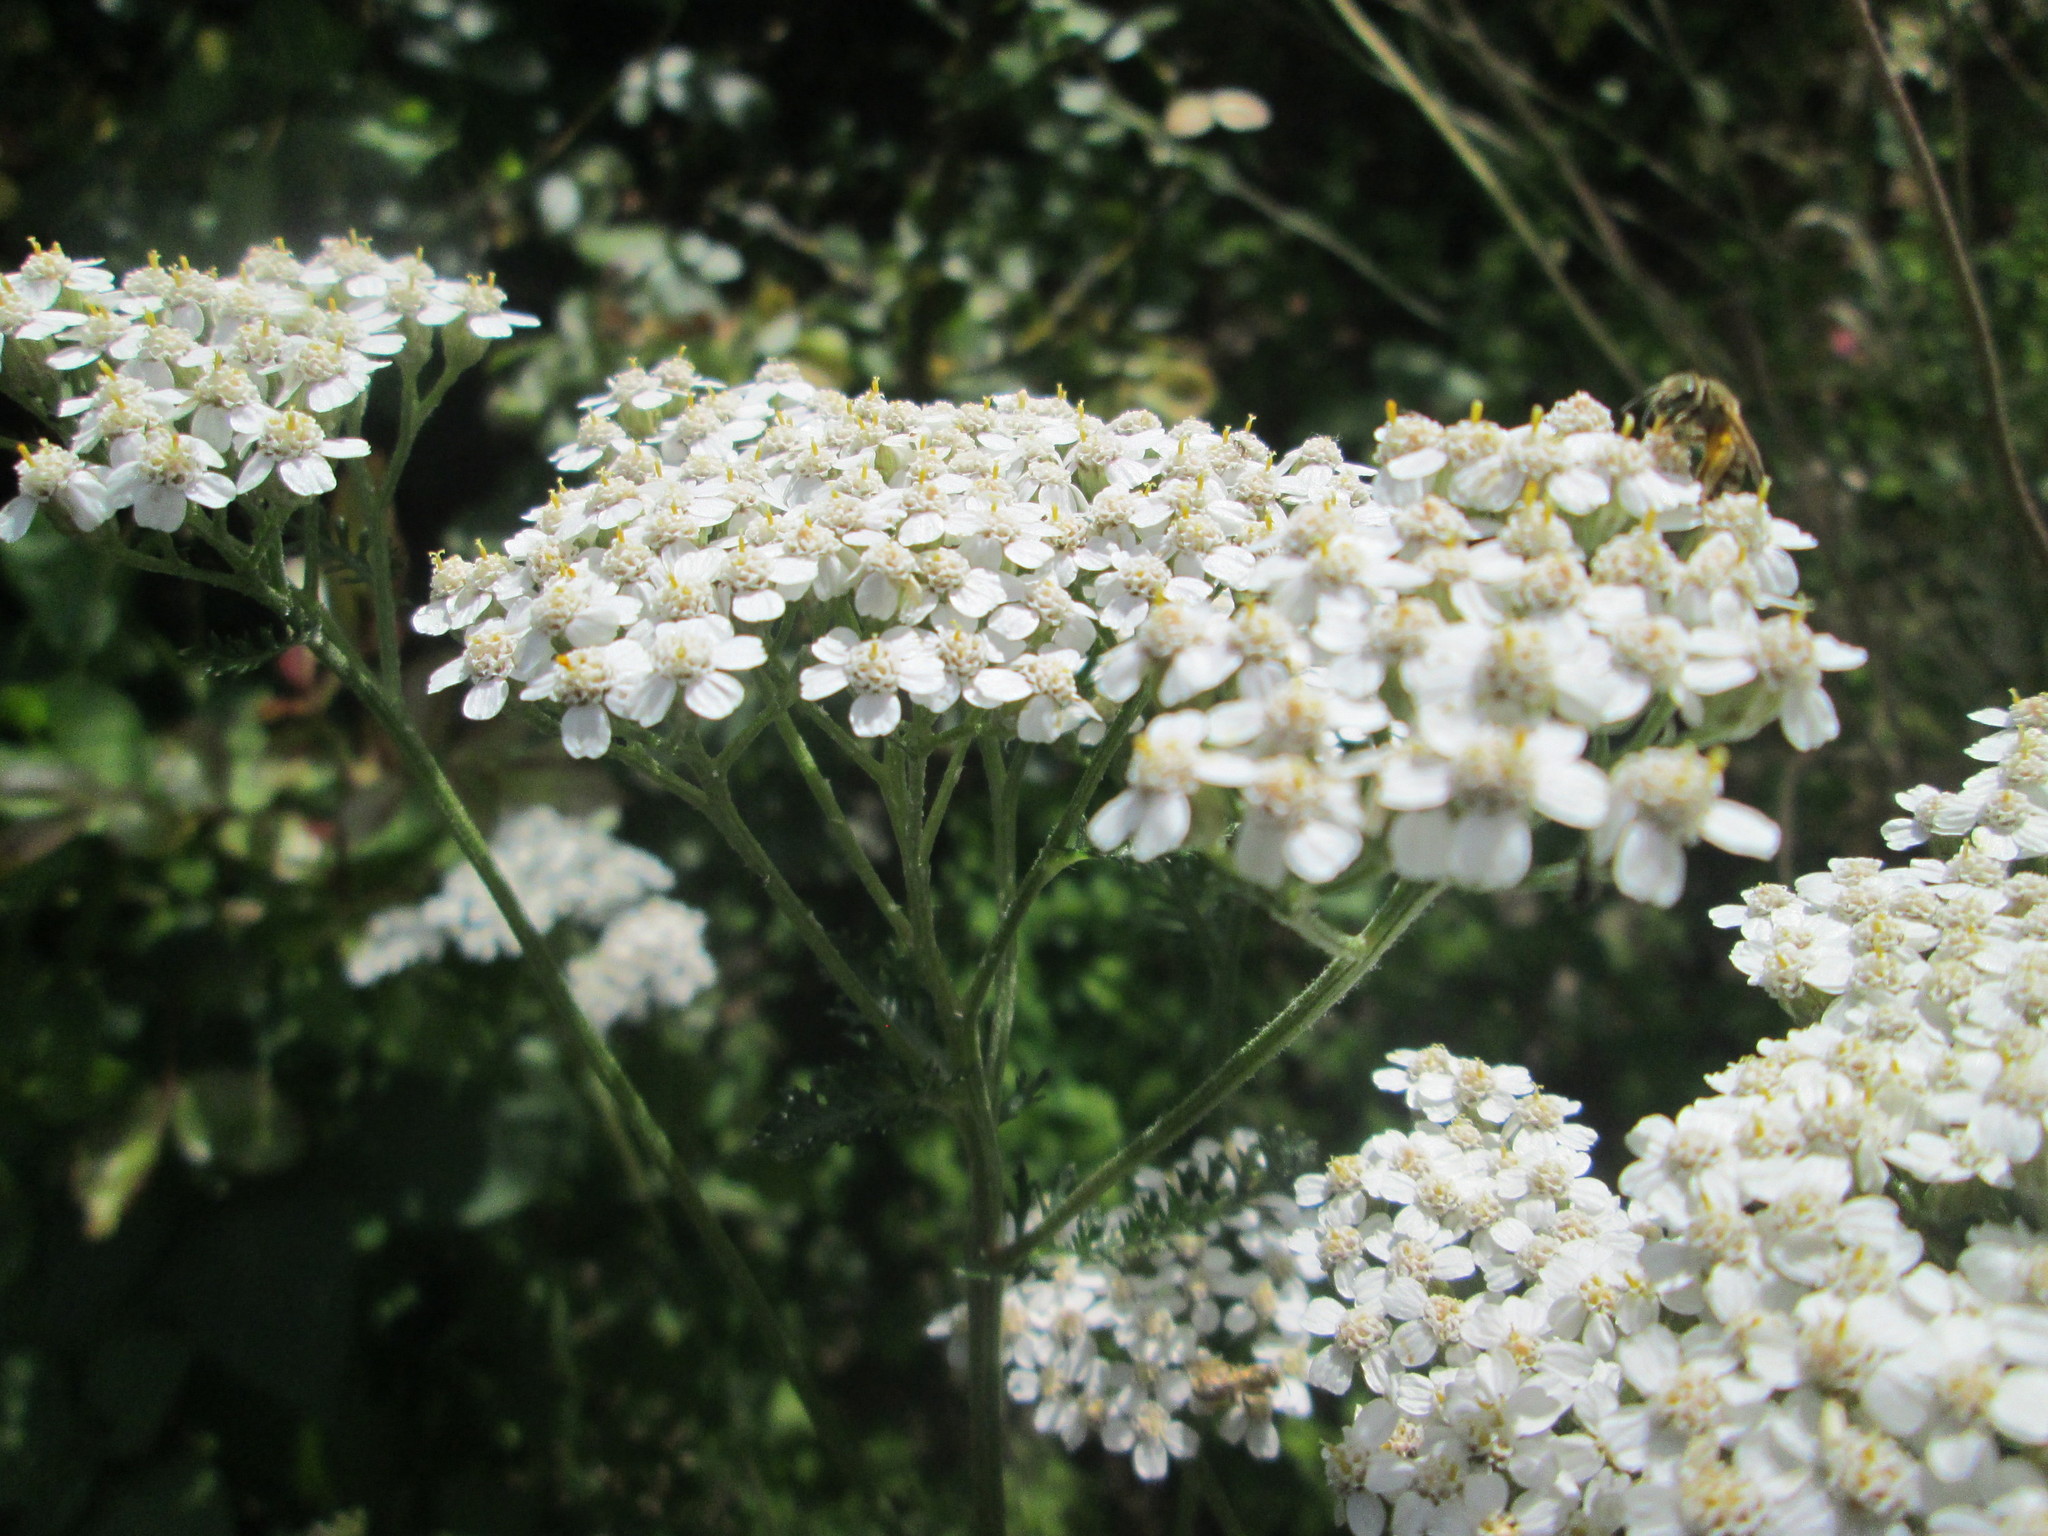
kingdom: Plantae
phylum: Tracheophyta
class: Magnoliopsida
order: Asterales
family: Asteraceae
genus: Achillea
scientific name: Achillea millefolium
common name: Yarrow
